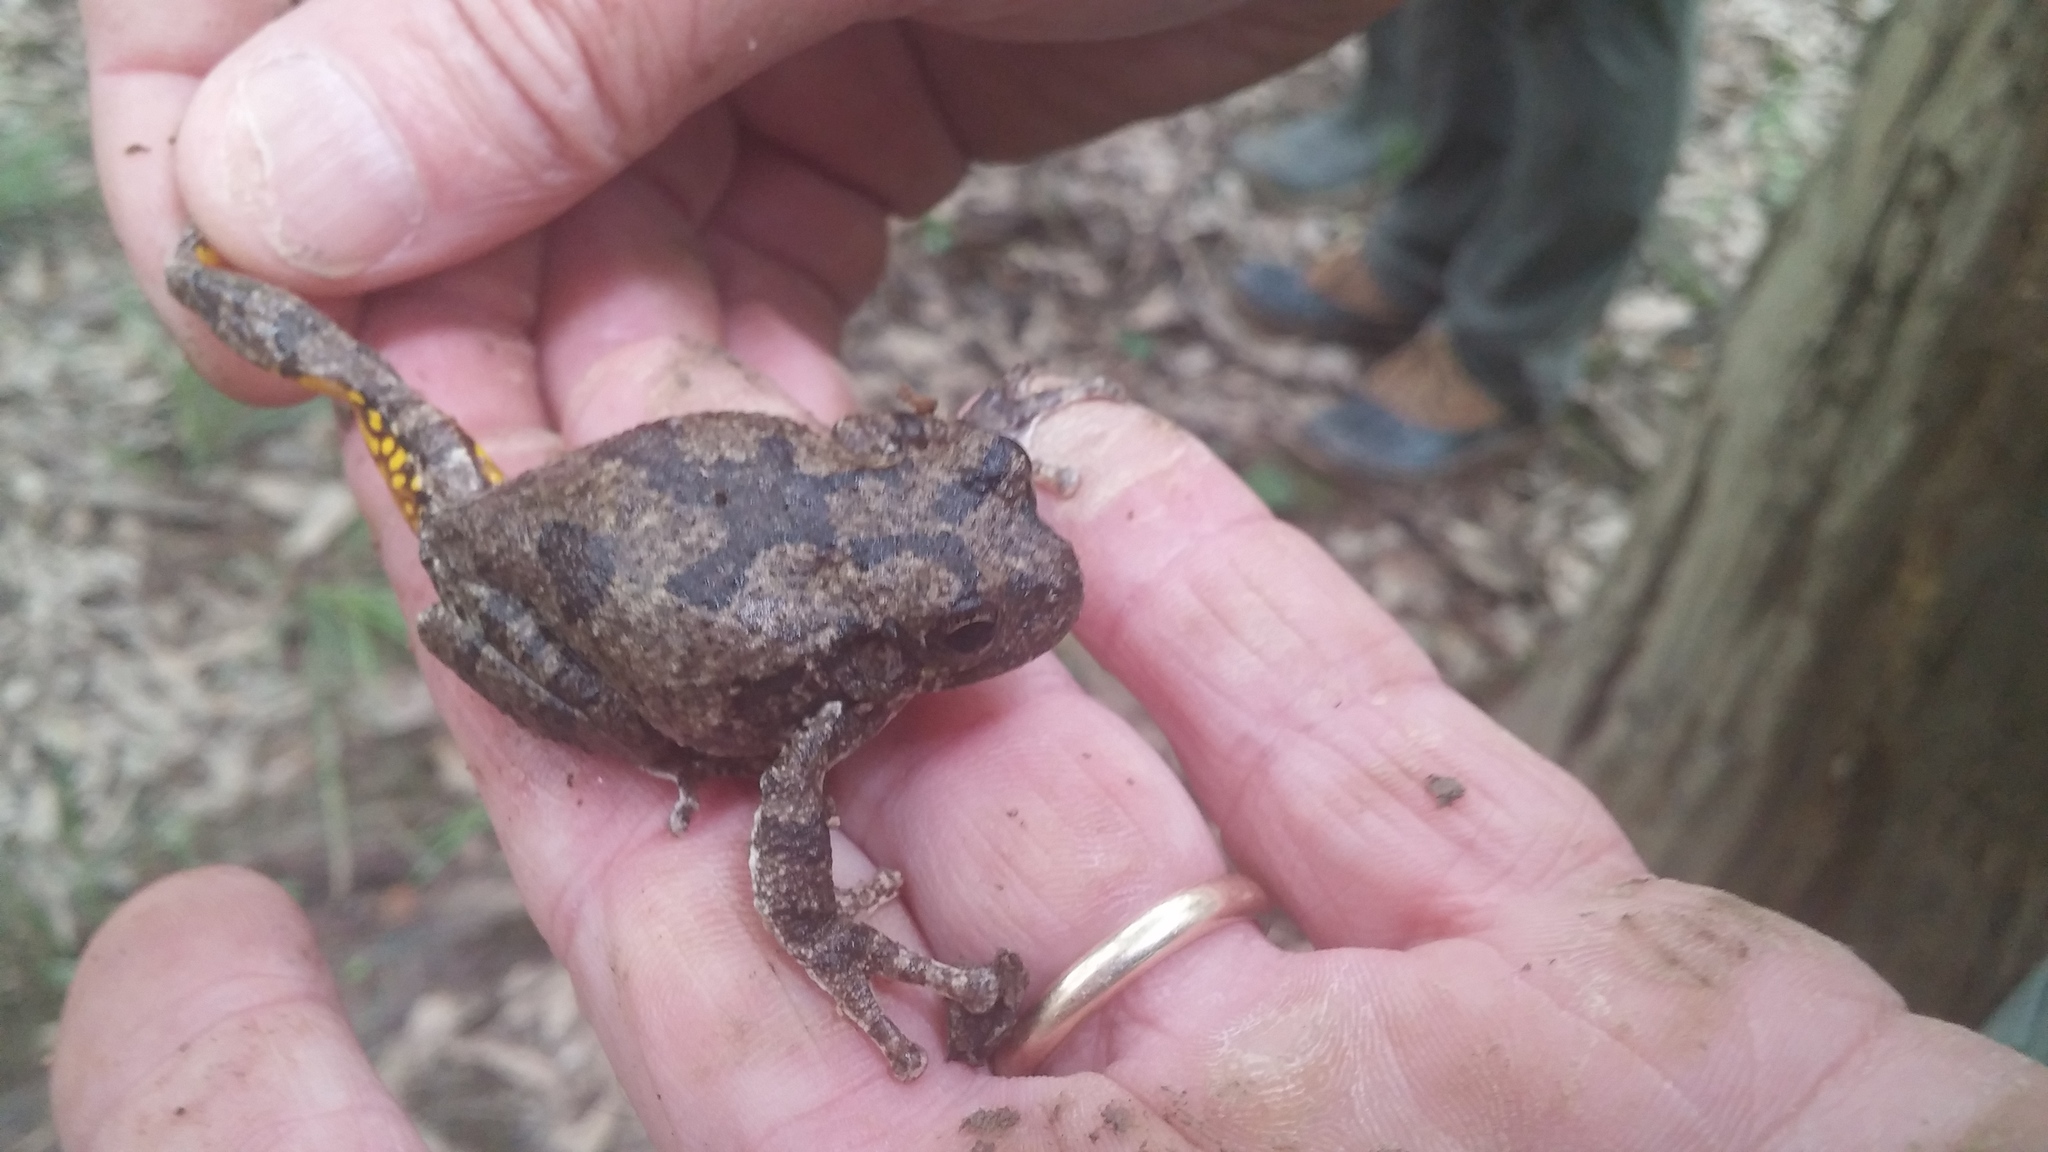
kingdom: Animalia
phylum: Chordata
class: Amphibia
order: Anura
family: Hylidae
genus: Dryophytes
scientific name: Dryophytes chrysoscelis
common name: Cope's gray treefrog
